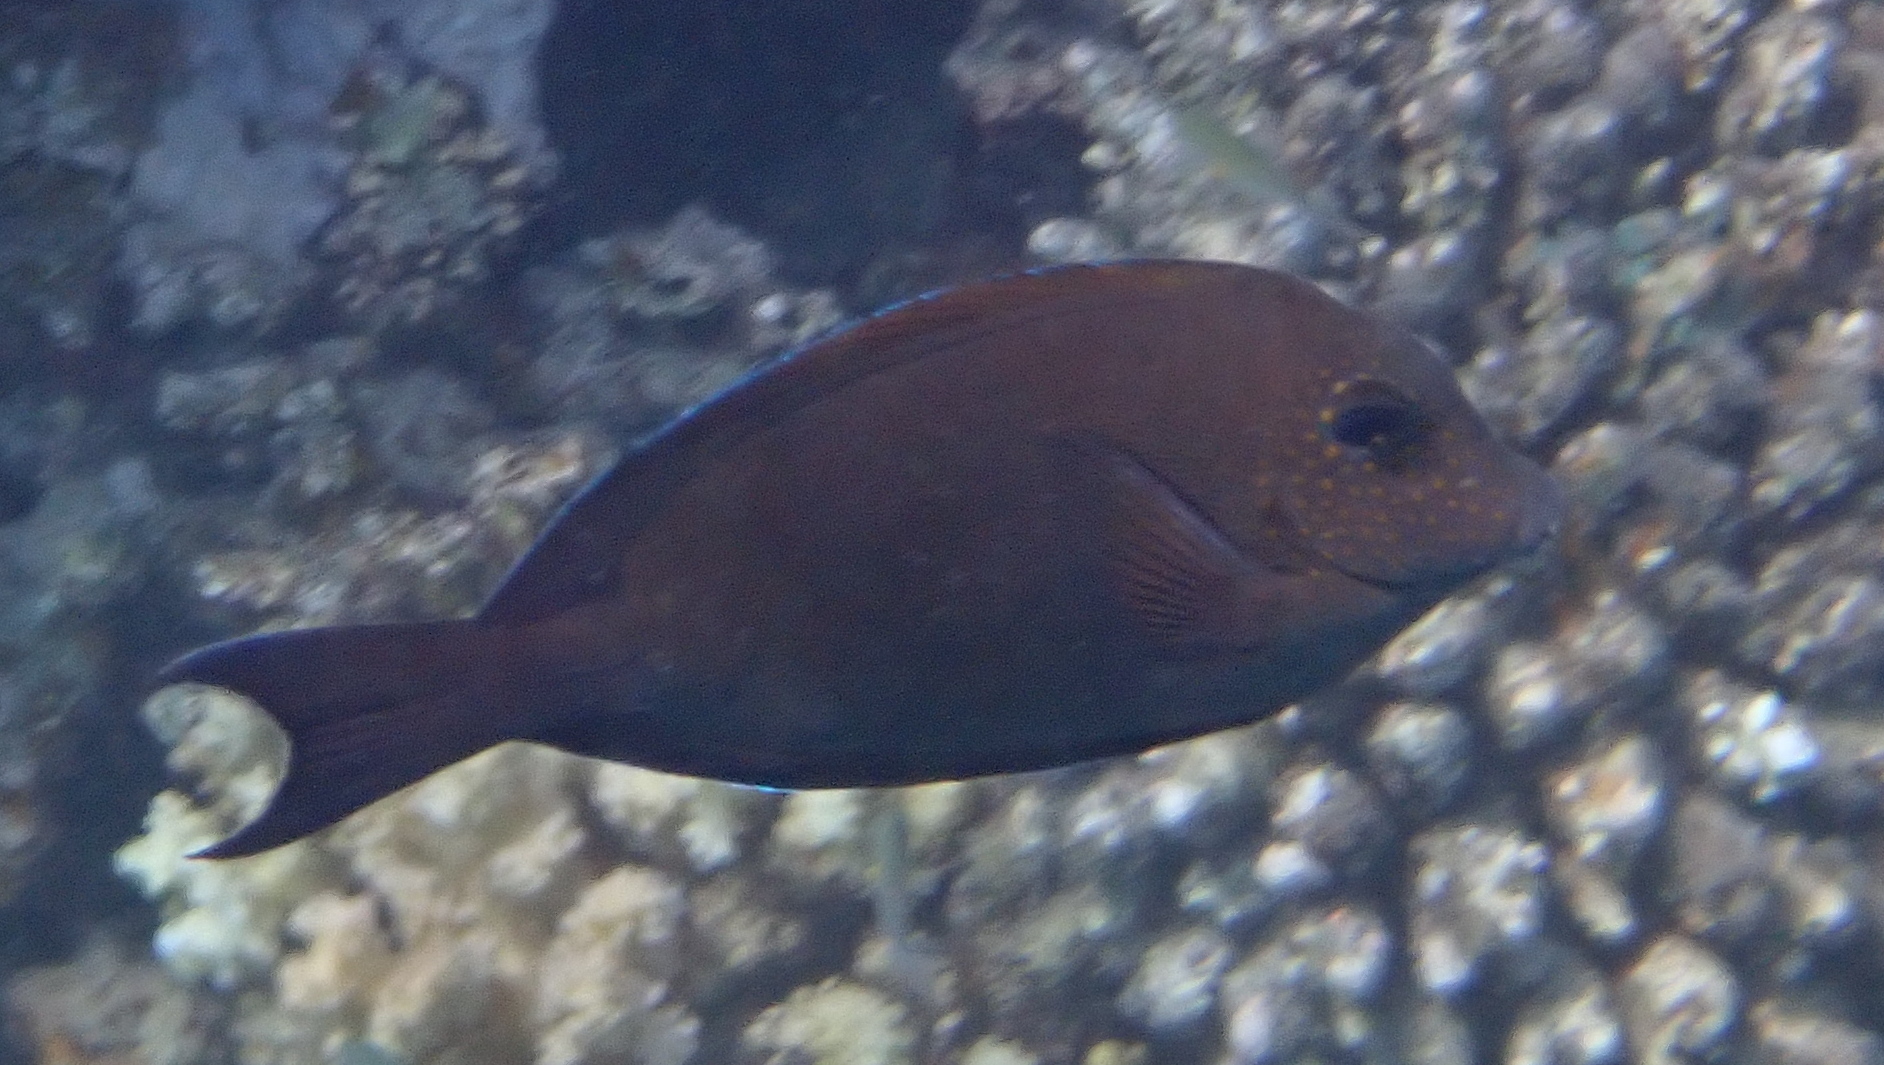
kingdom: Animalia
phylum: Chordata
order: Perciformes
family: Acanthuridae
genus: Acanthurus
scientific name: Acanthurus nigrofuscus
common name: Blackspot surgeonfish
